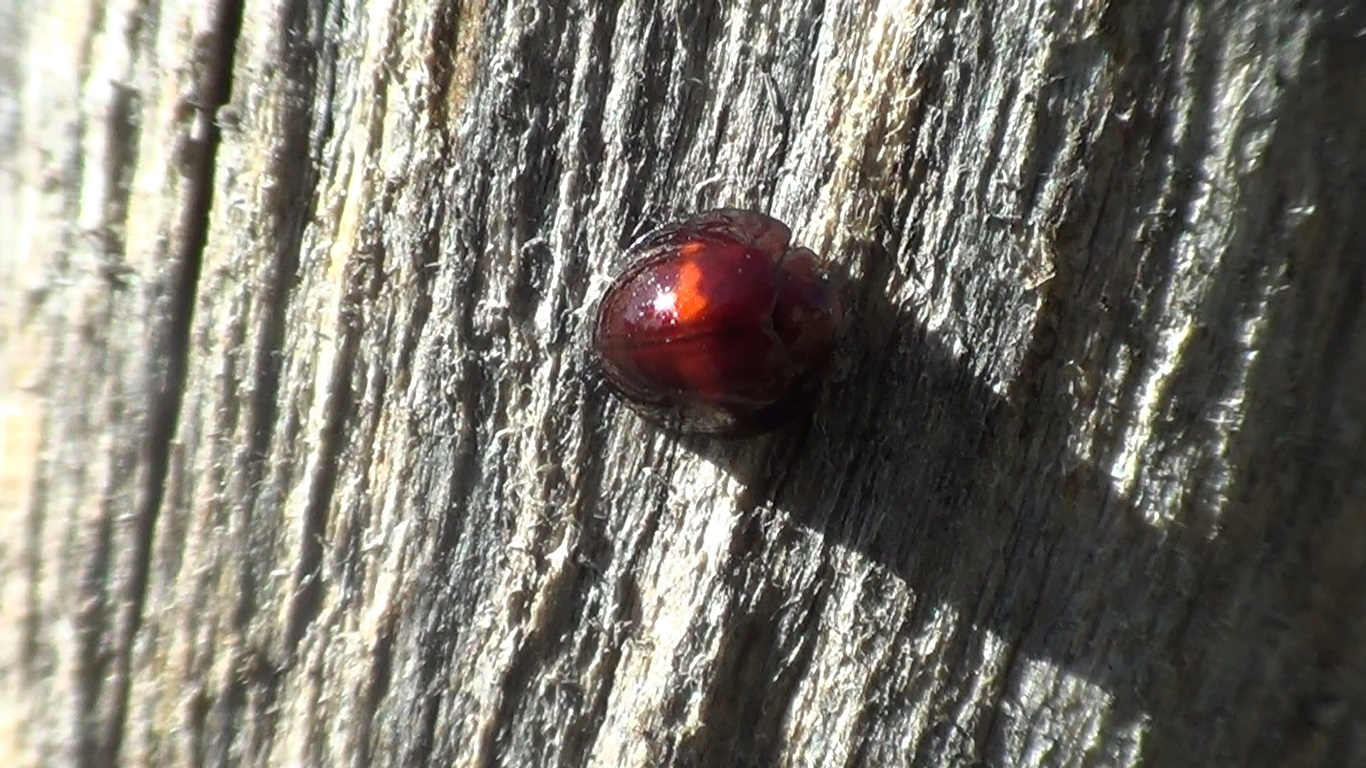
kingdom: Animalia
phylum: Arthropoda
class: Insecta
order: Coleoptera
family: Coccinellidae
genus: Chilocorus
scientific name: Chilocorus bipustulatus
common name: Heather ladybird
